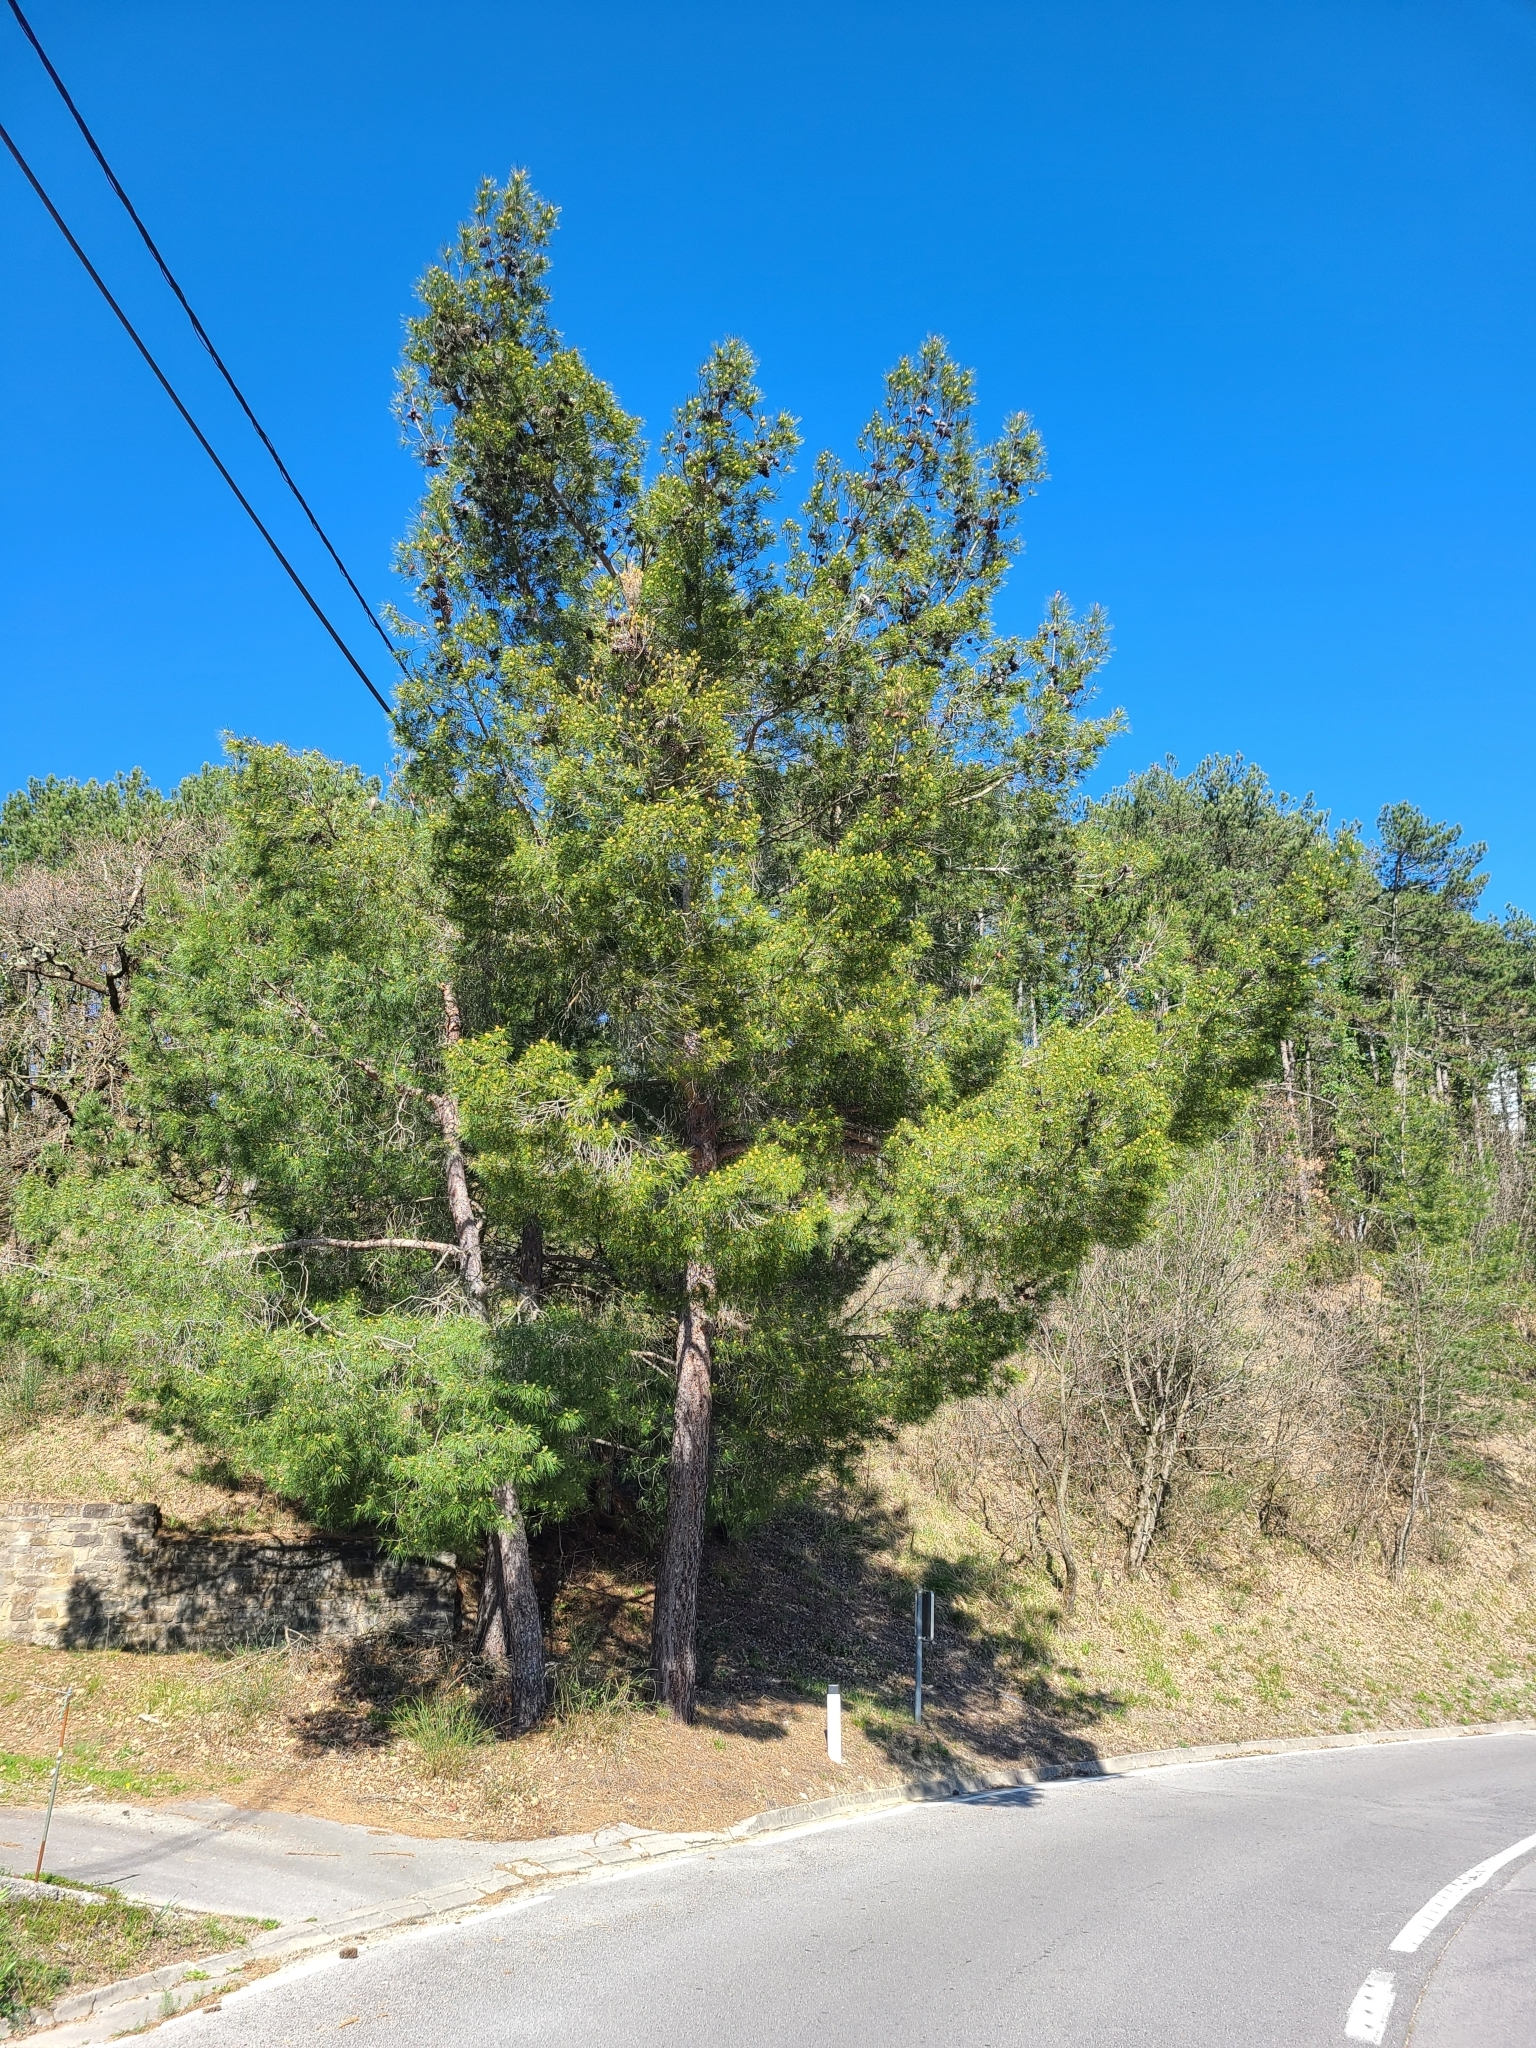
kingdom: Plantae
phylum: Tracheophyta
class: Pinopsida
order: Pinales
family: Pinaceae
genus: Pinus
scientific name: Pinus halepensis
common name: Aleppo pine
